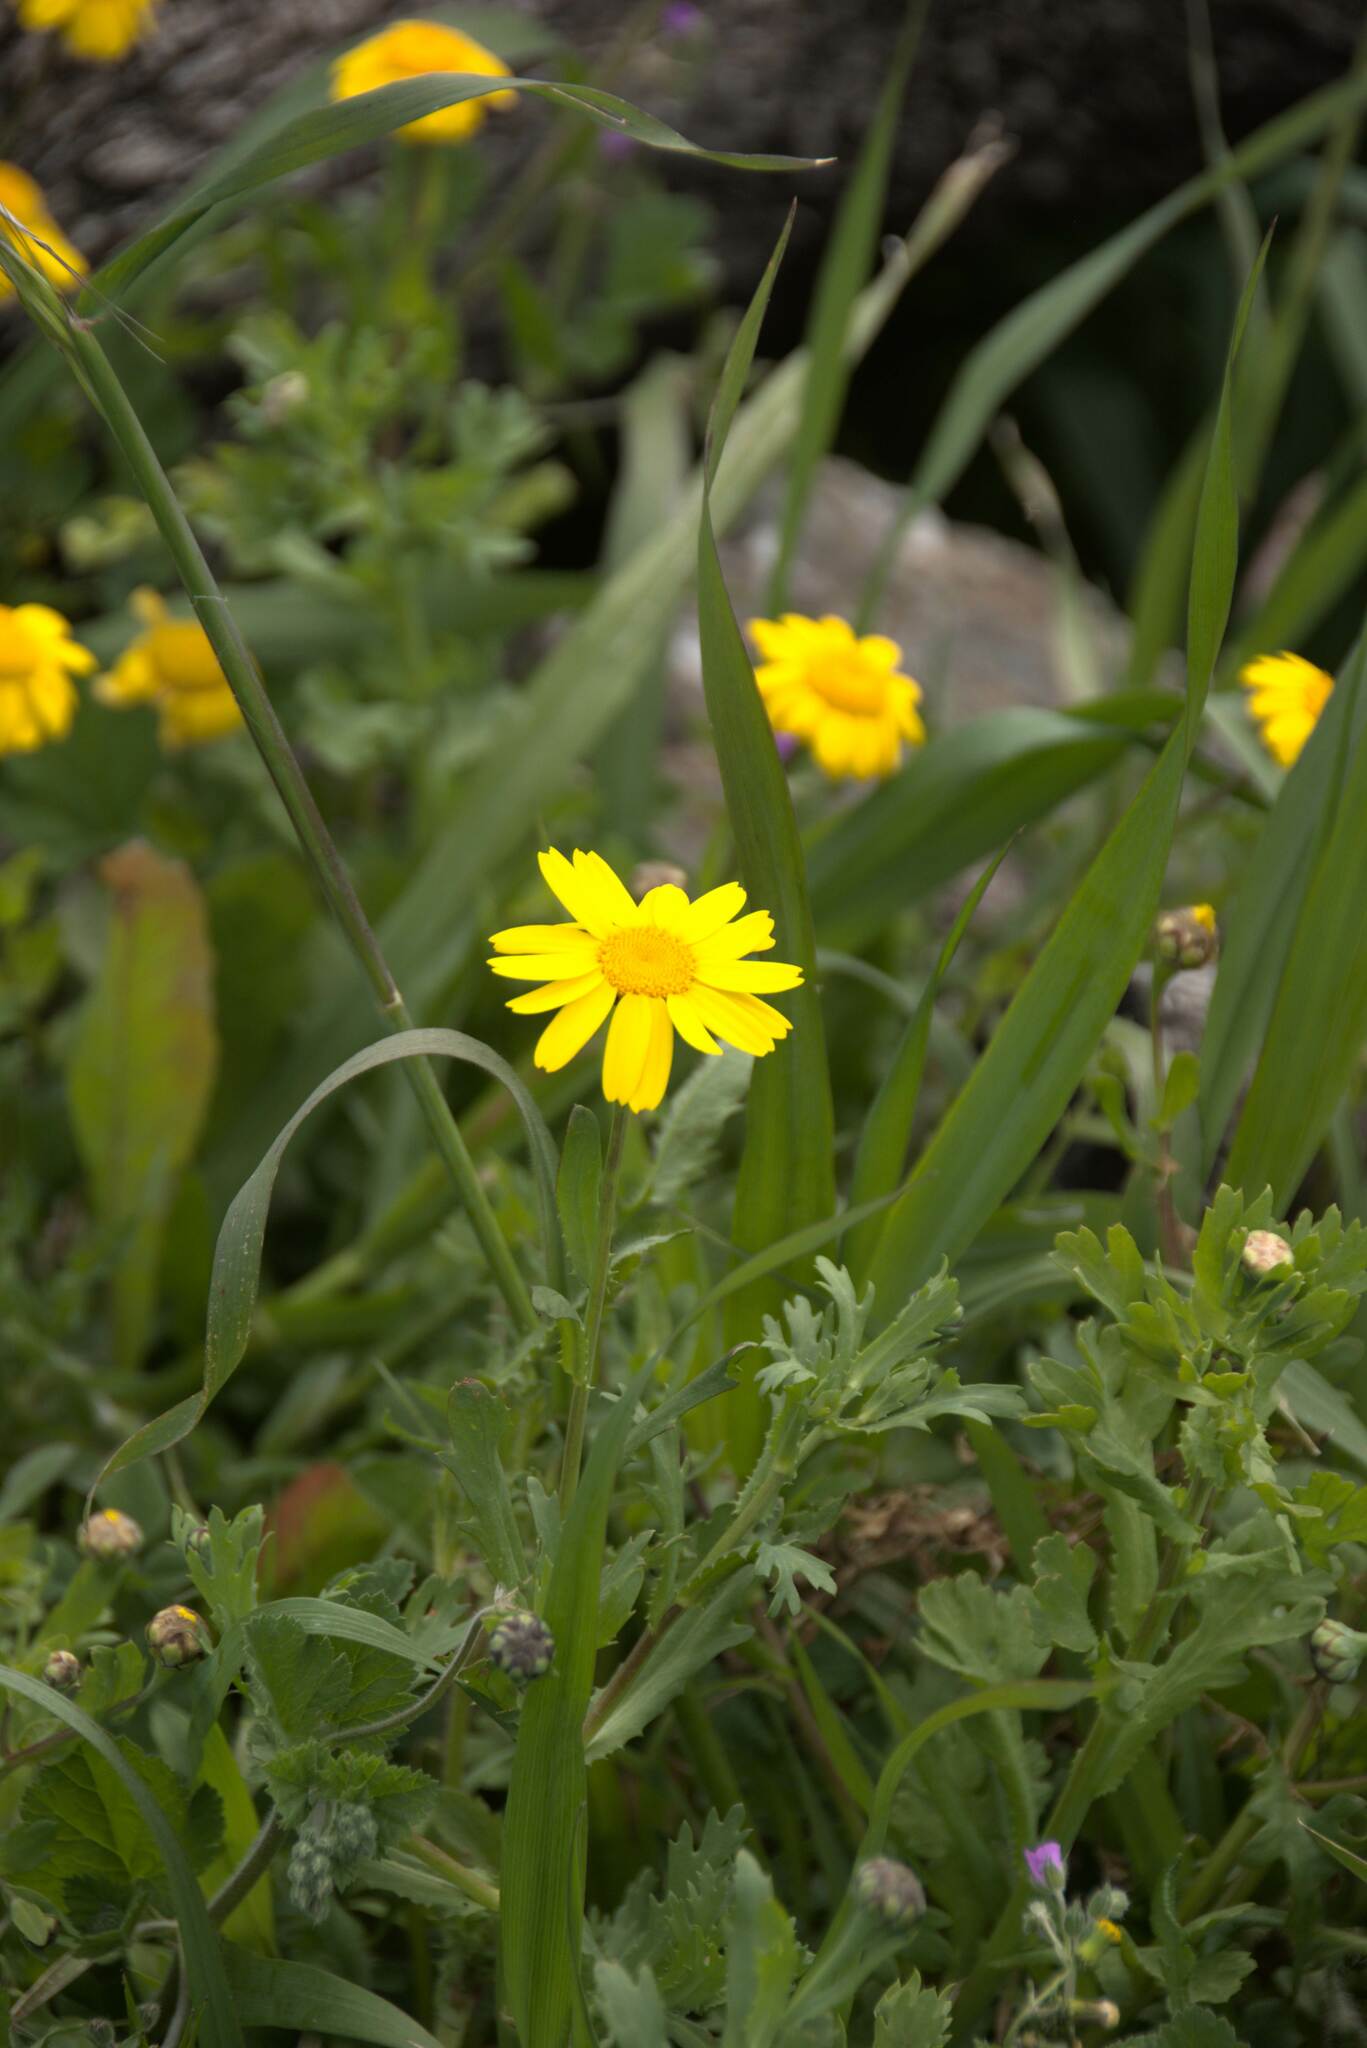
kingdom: Plantae
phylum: Tracheophyta
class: Magnoliopsida
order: Asterales
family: Asteraceae
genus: Glebionis
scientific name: Glebionis segetum
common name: Corndaisy
